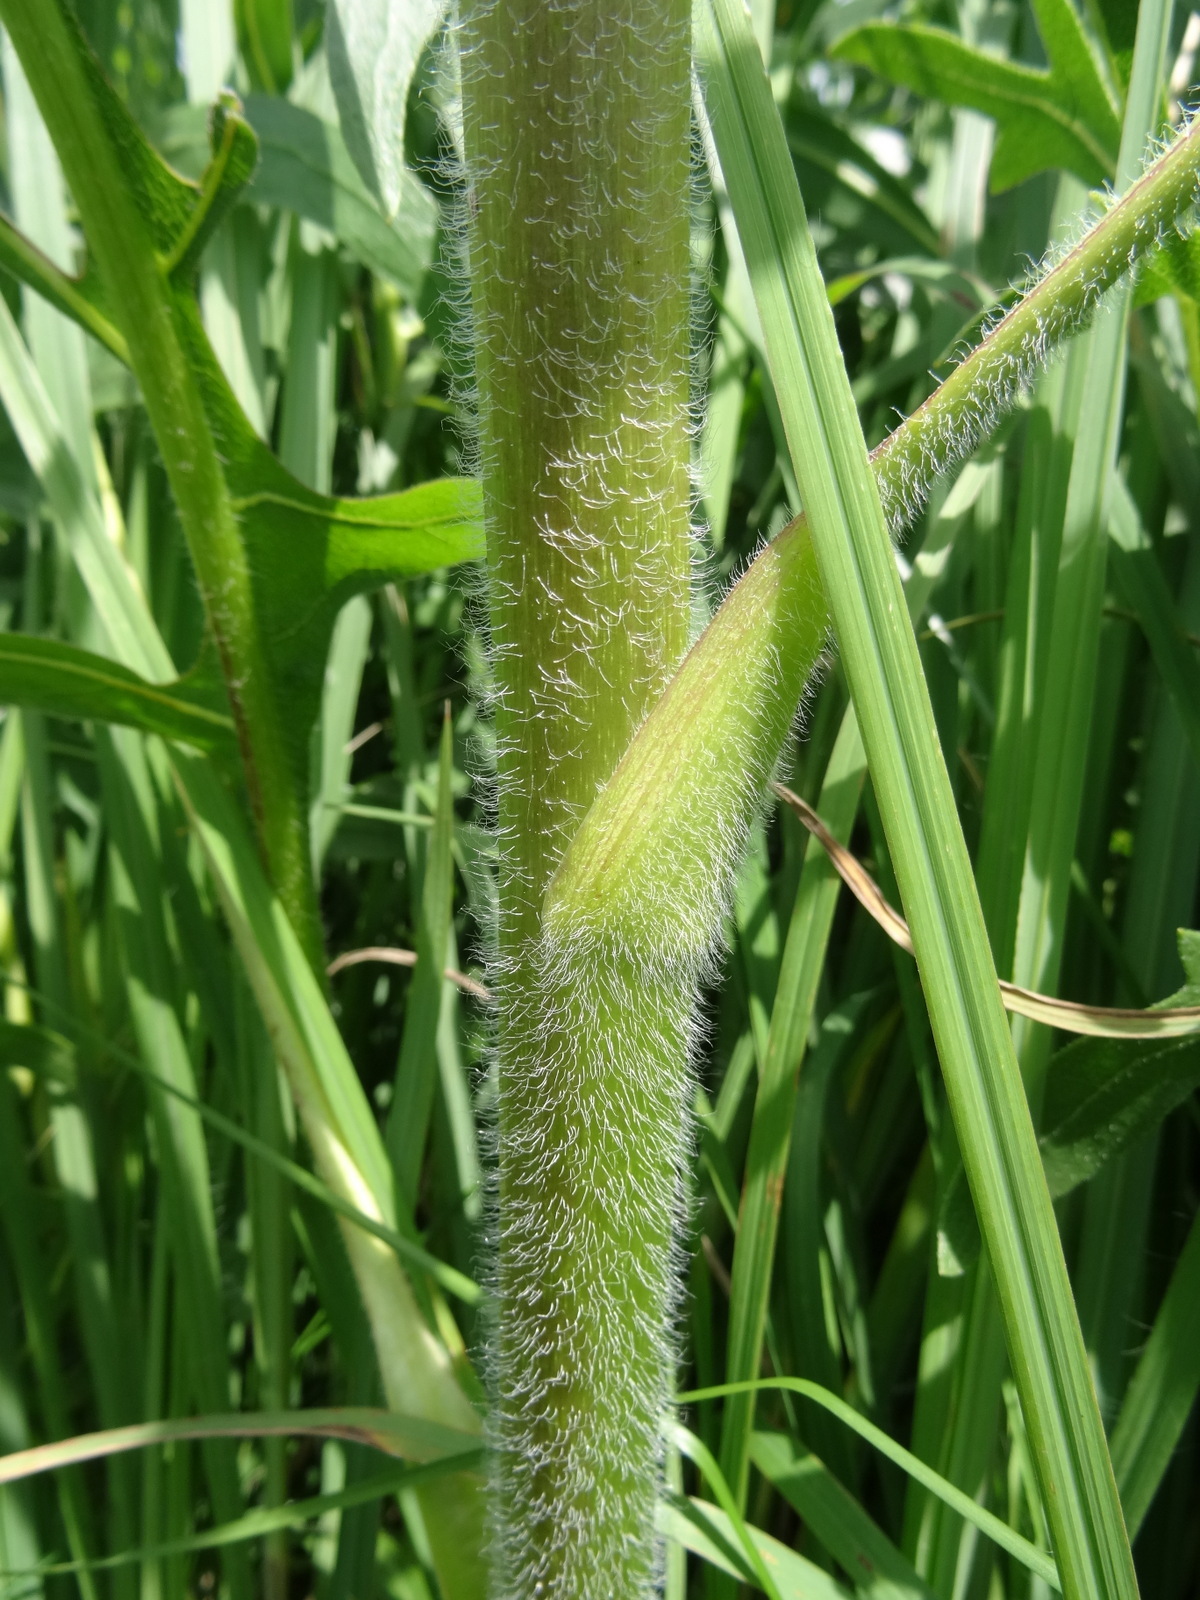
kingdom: Plantae
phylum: Tracheophyta
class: Magnoliopsida
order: Asterales
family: Asteraceae
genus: Silphium
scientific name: Silphium laciniatum
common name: Polarplant
